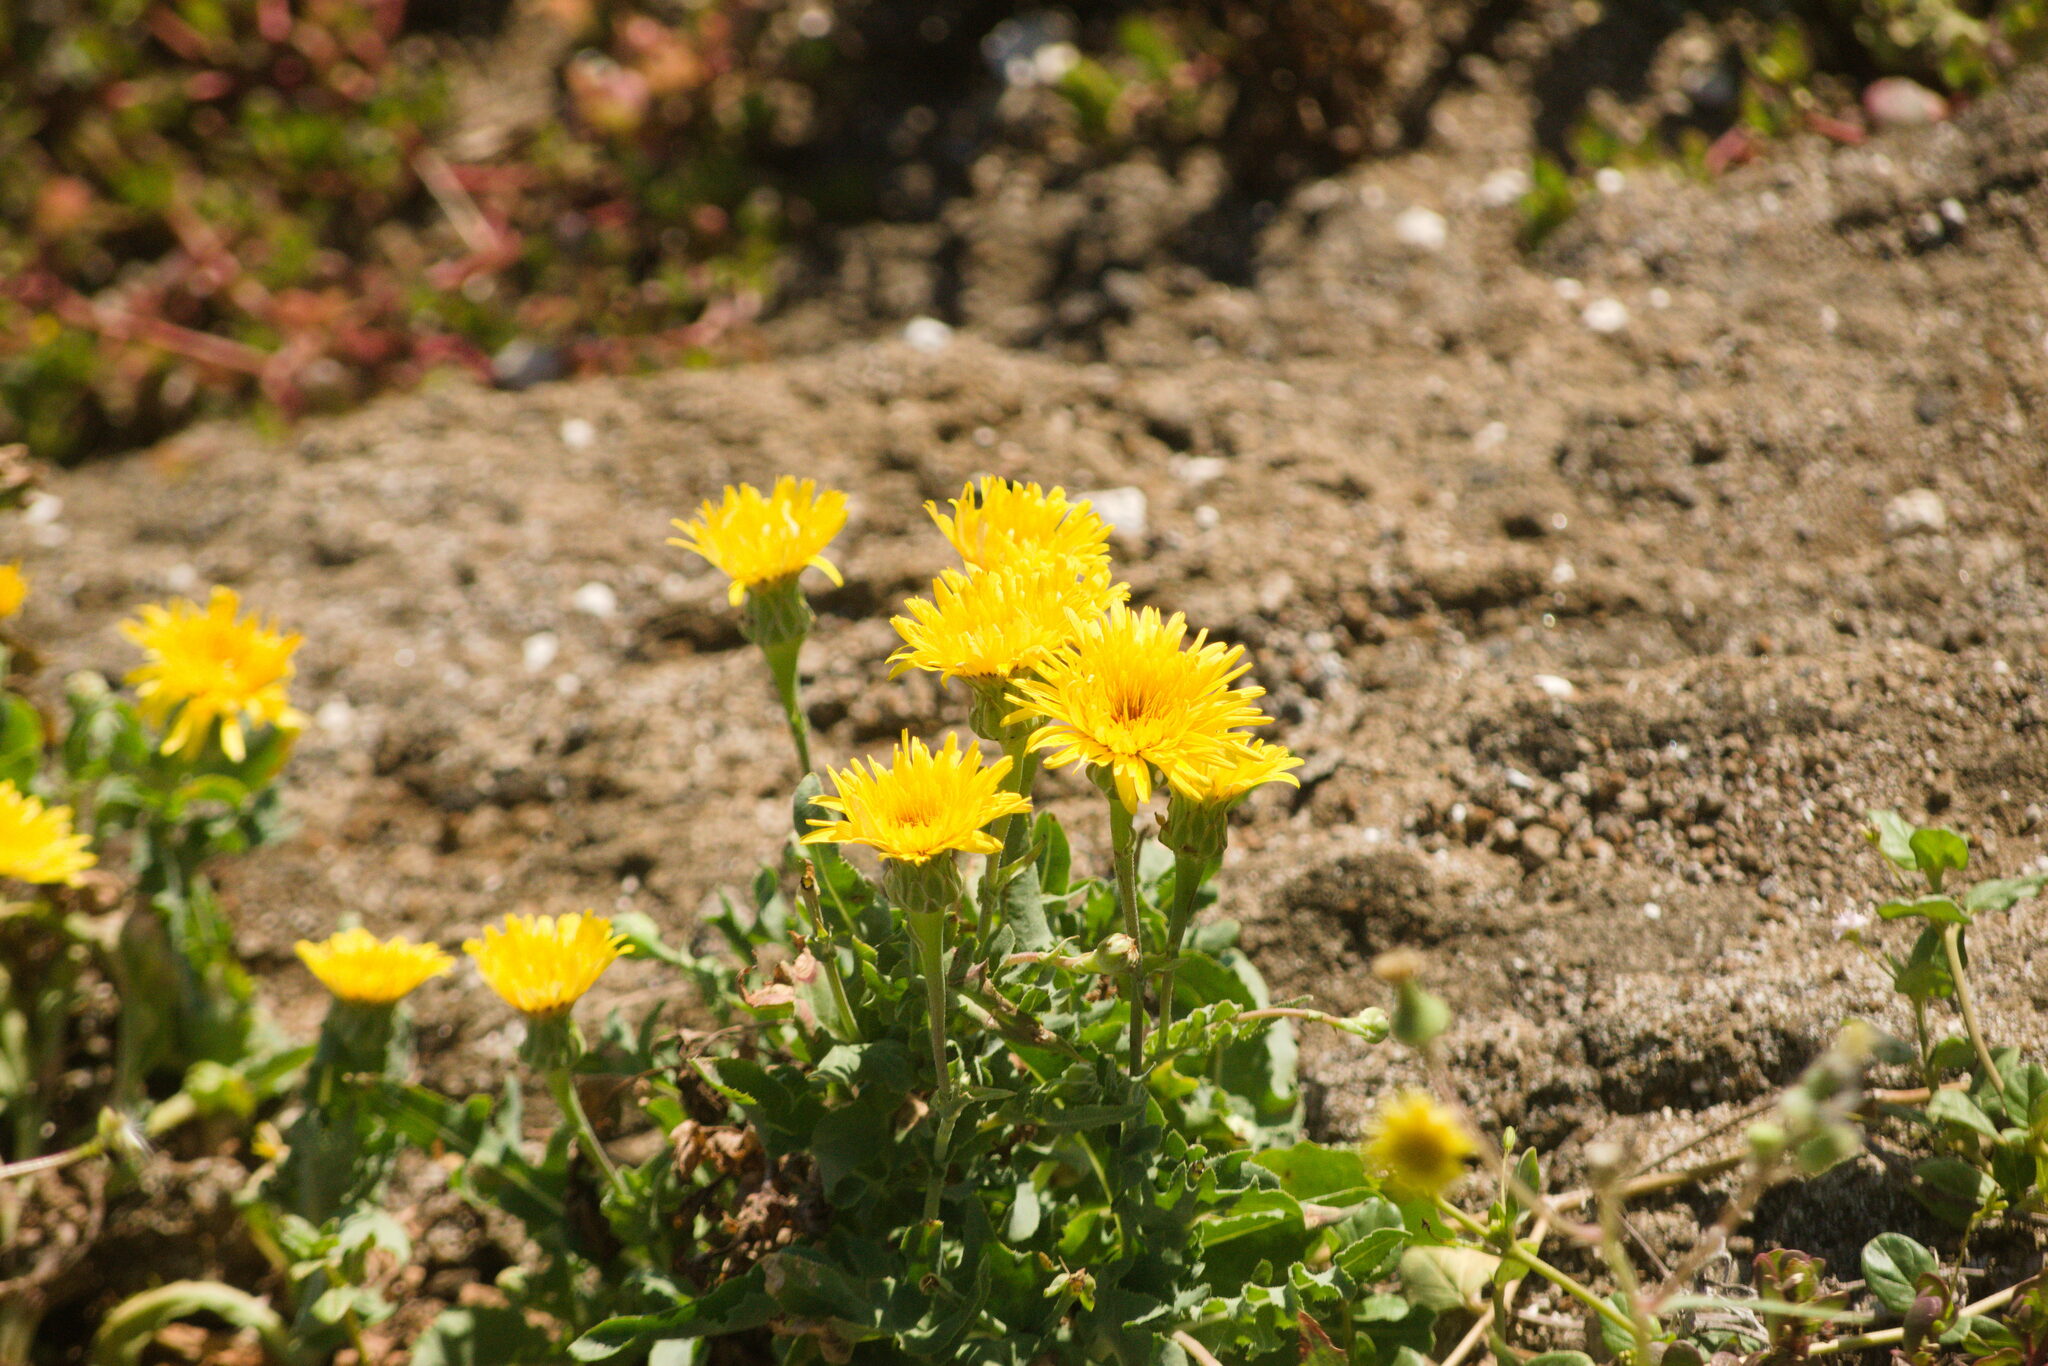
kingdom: Plantae
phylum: Tracheophyta
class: Magnoliopsida
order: Asterales
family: Asteraceae
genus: Reichardia
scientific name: Reichardia tingitana
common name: Reichardia
